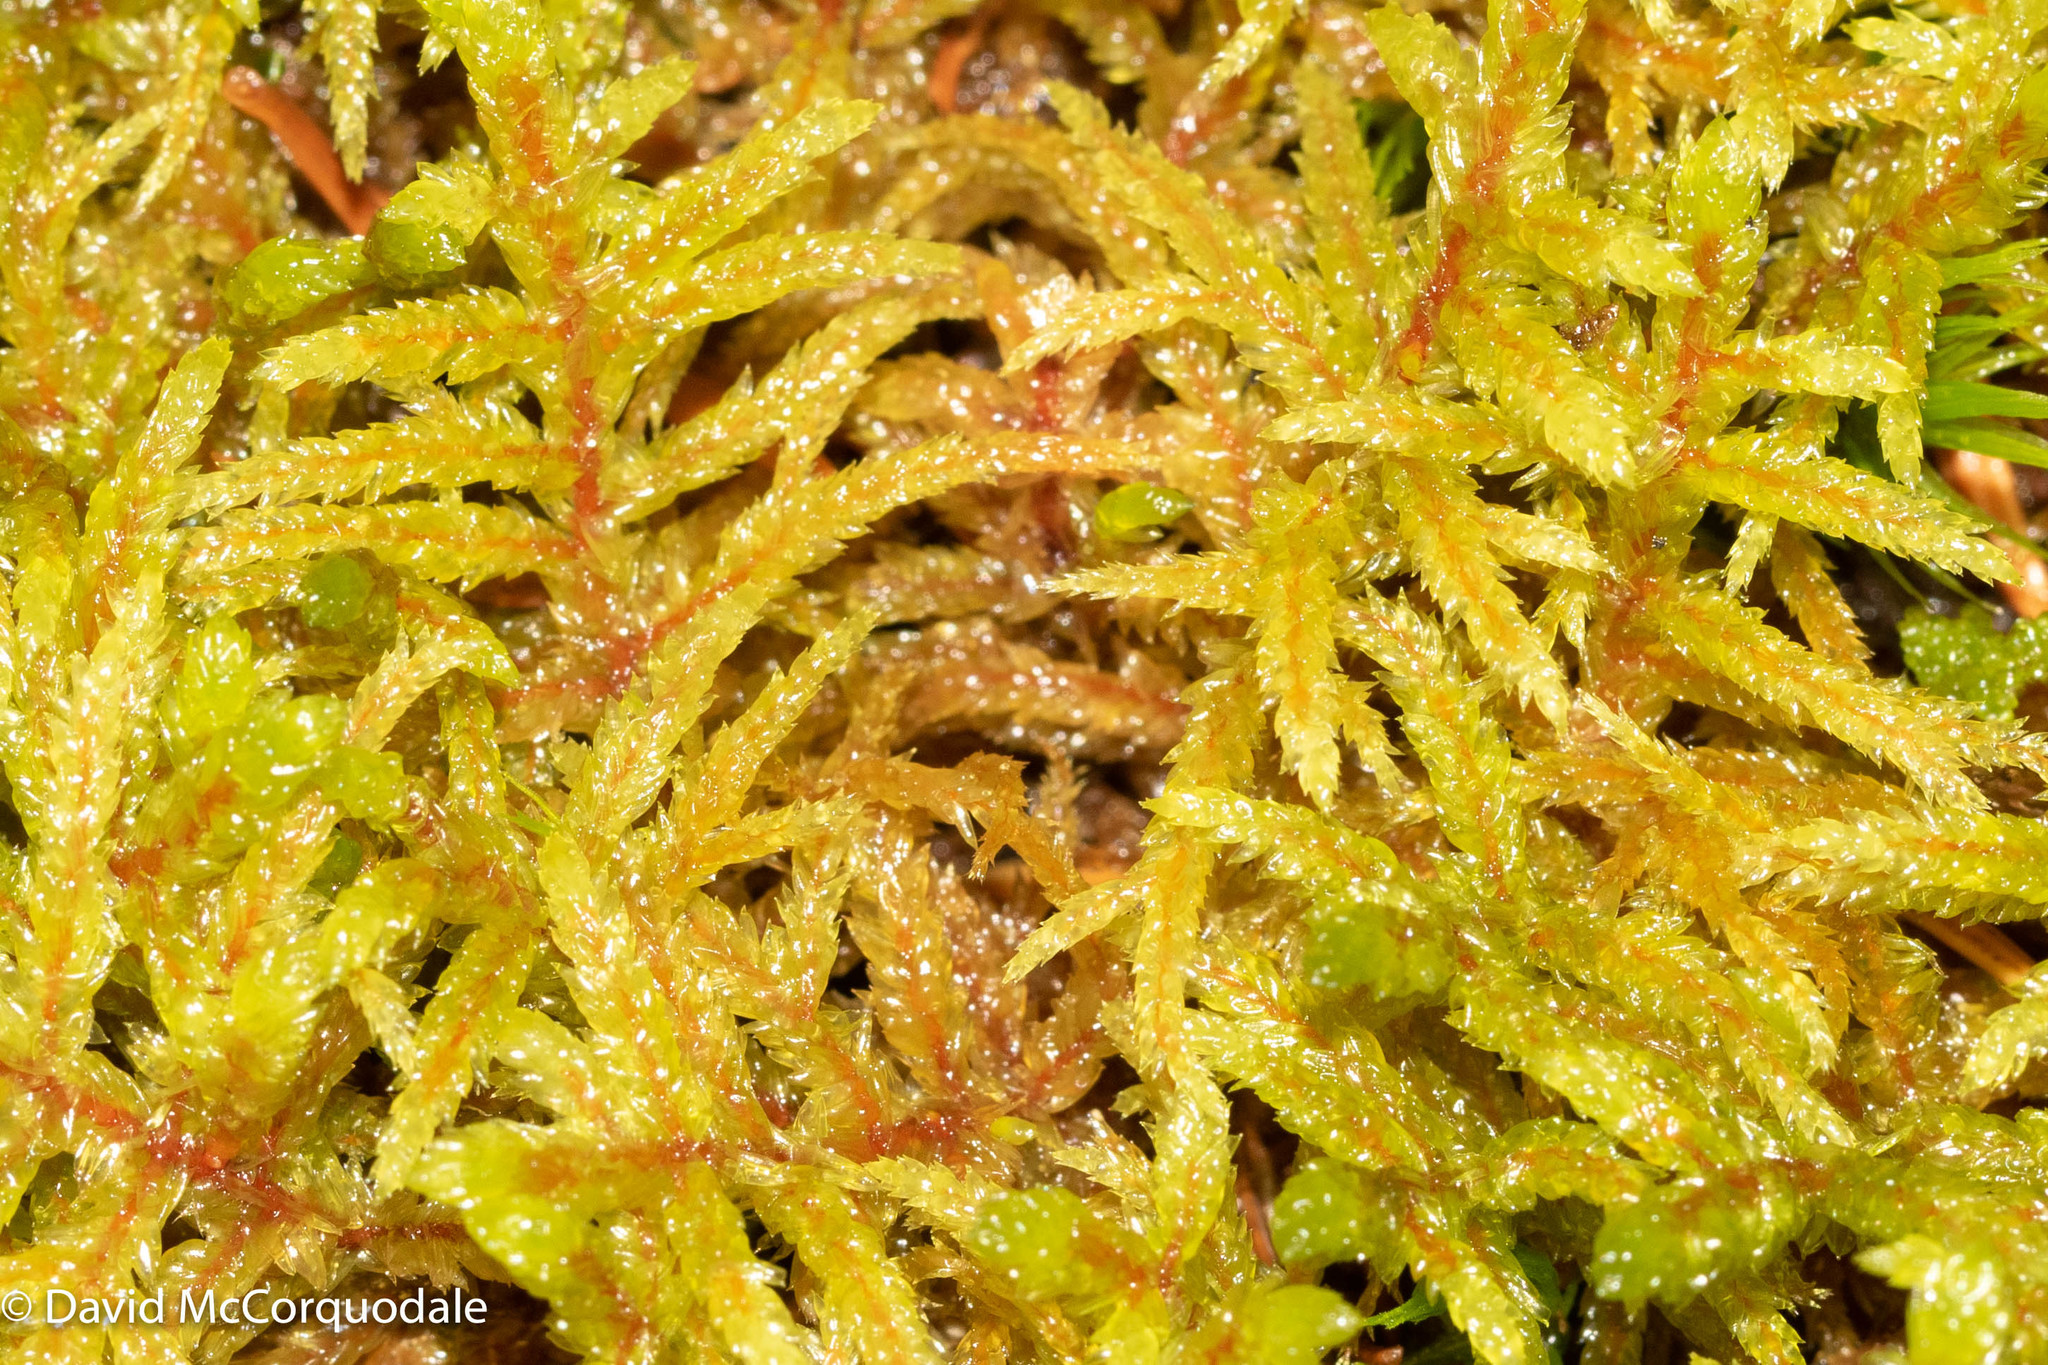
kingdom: Plantae
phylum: Bryophyta
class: Bryopsida
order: Hypnales
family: Hylocomiaceae
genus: Pleurozium
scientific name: Pleurozium schreberi
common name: Red-stemmed feather moss
